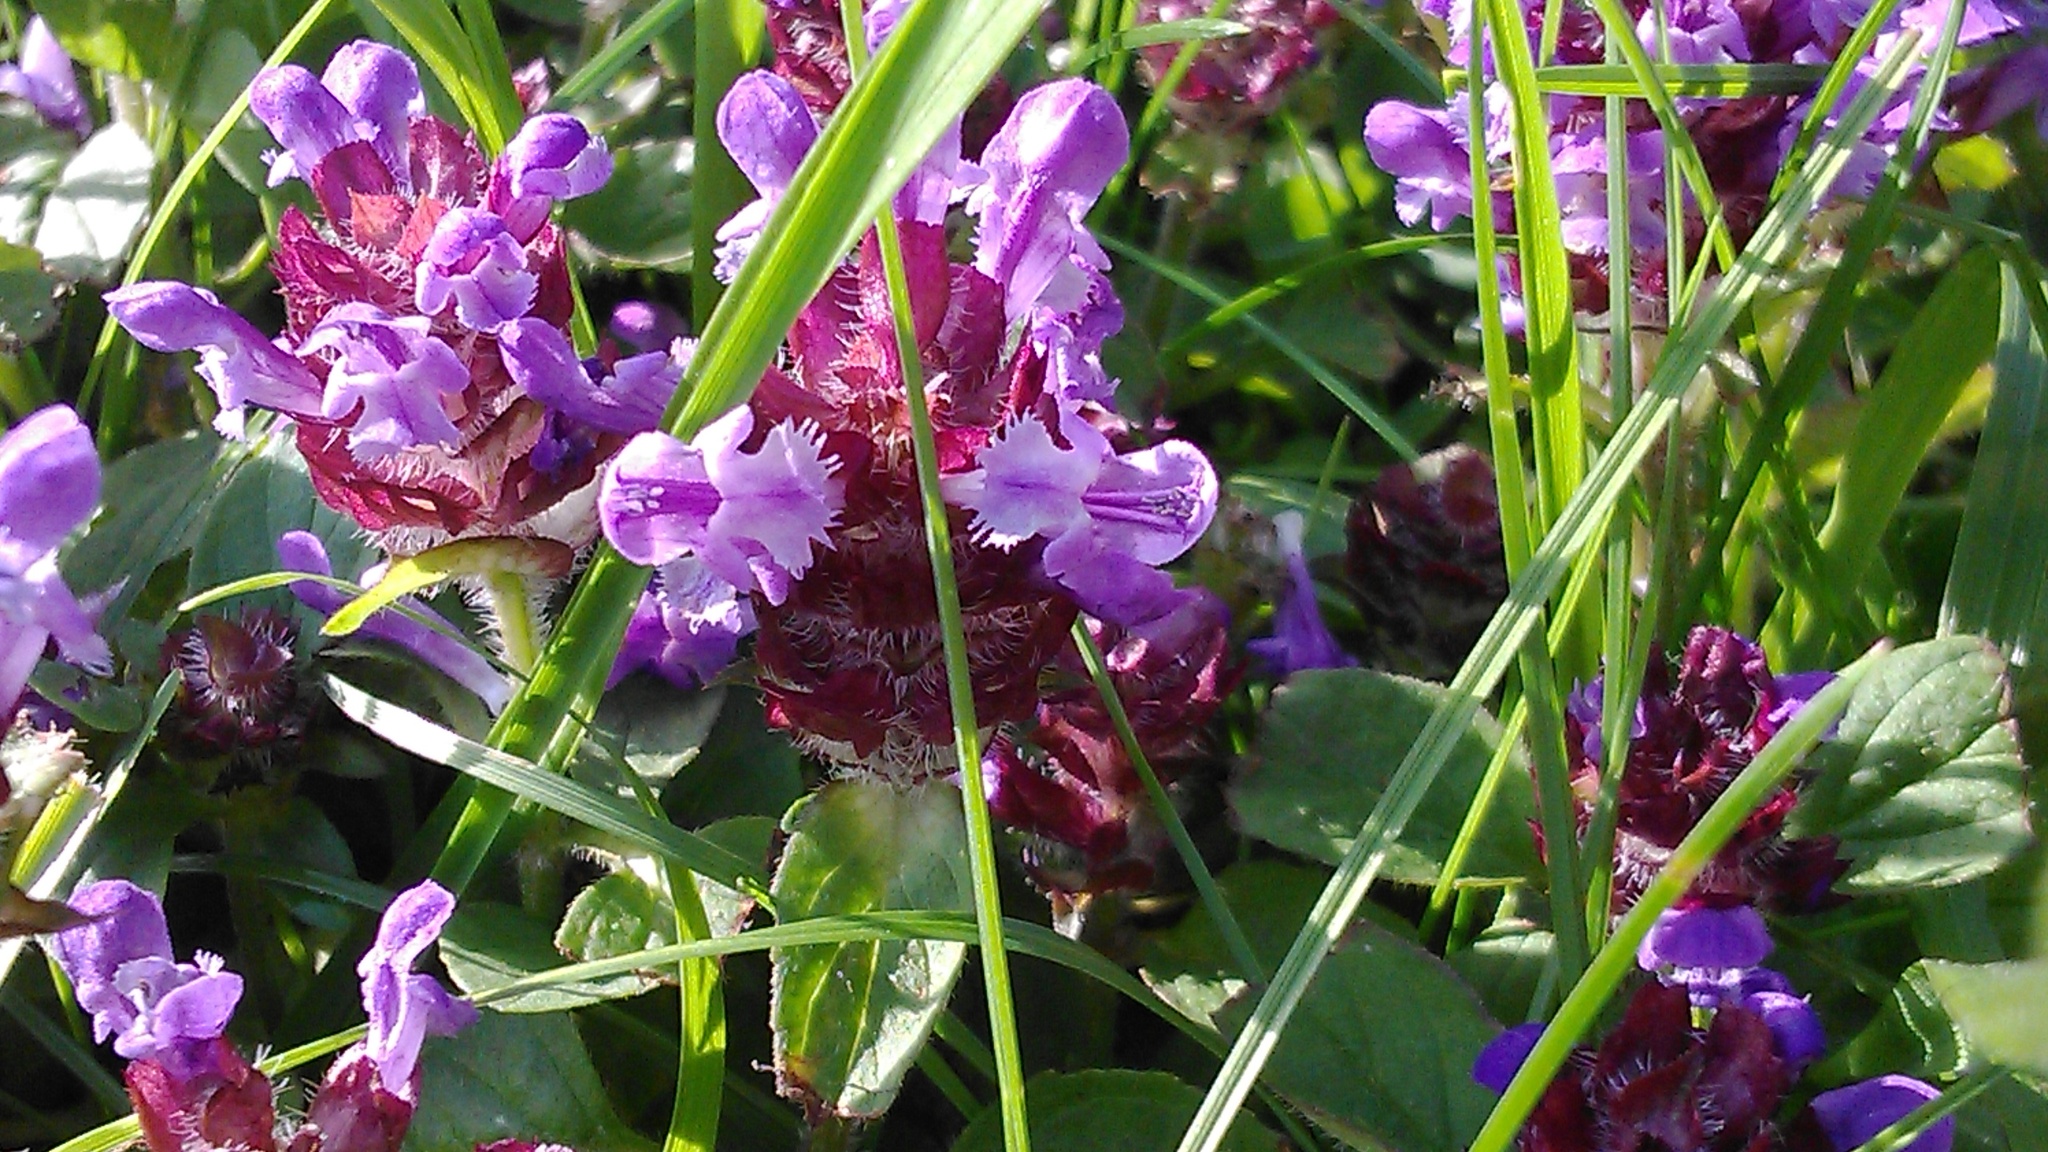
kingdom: Plantae
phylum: Tracheophyta
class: Magnoliopsida
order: Lamiales
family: Lamiaceae
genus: Prunella
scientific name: Prunella vulgaris
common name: Heal-all
